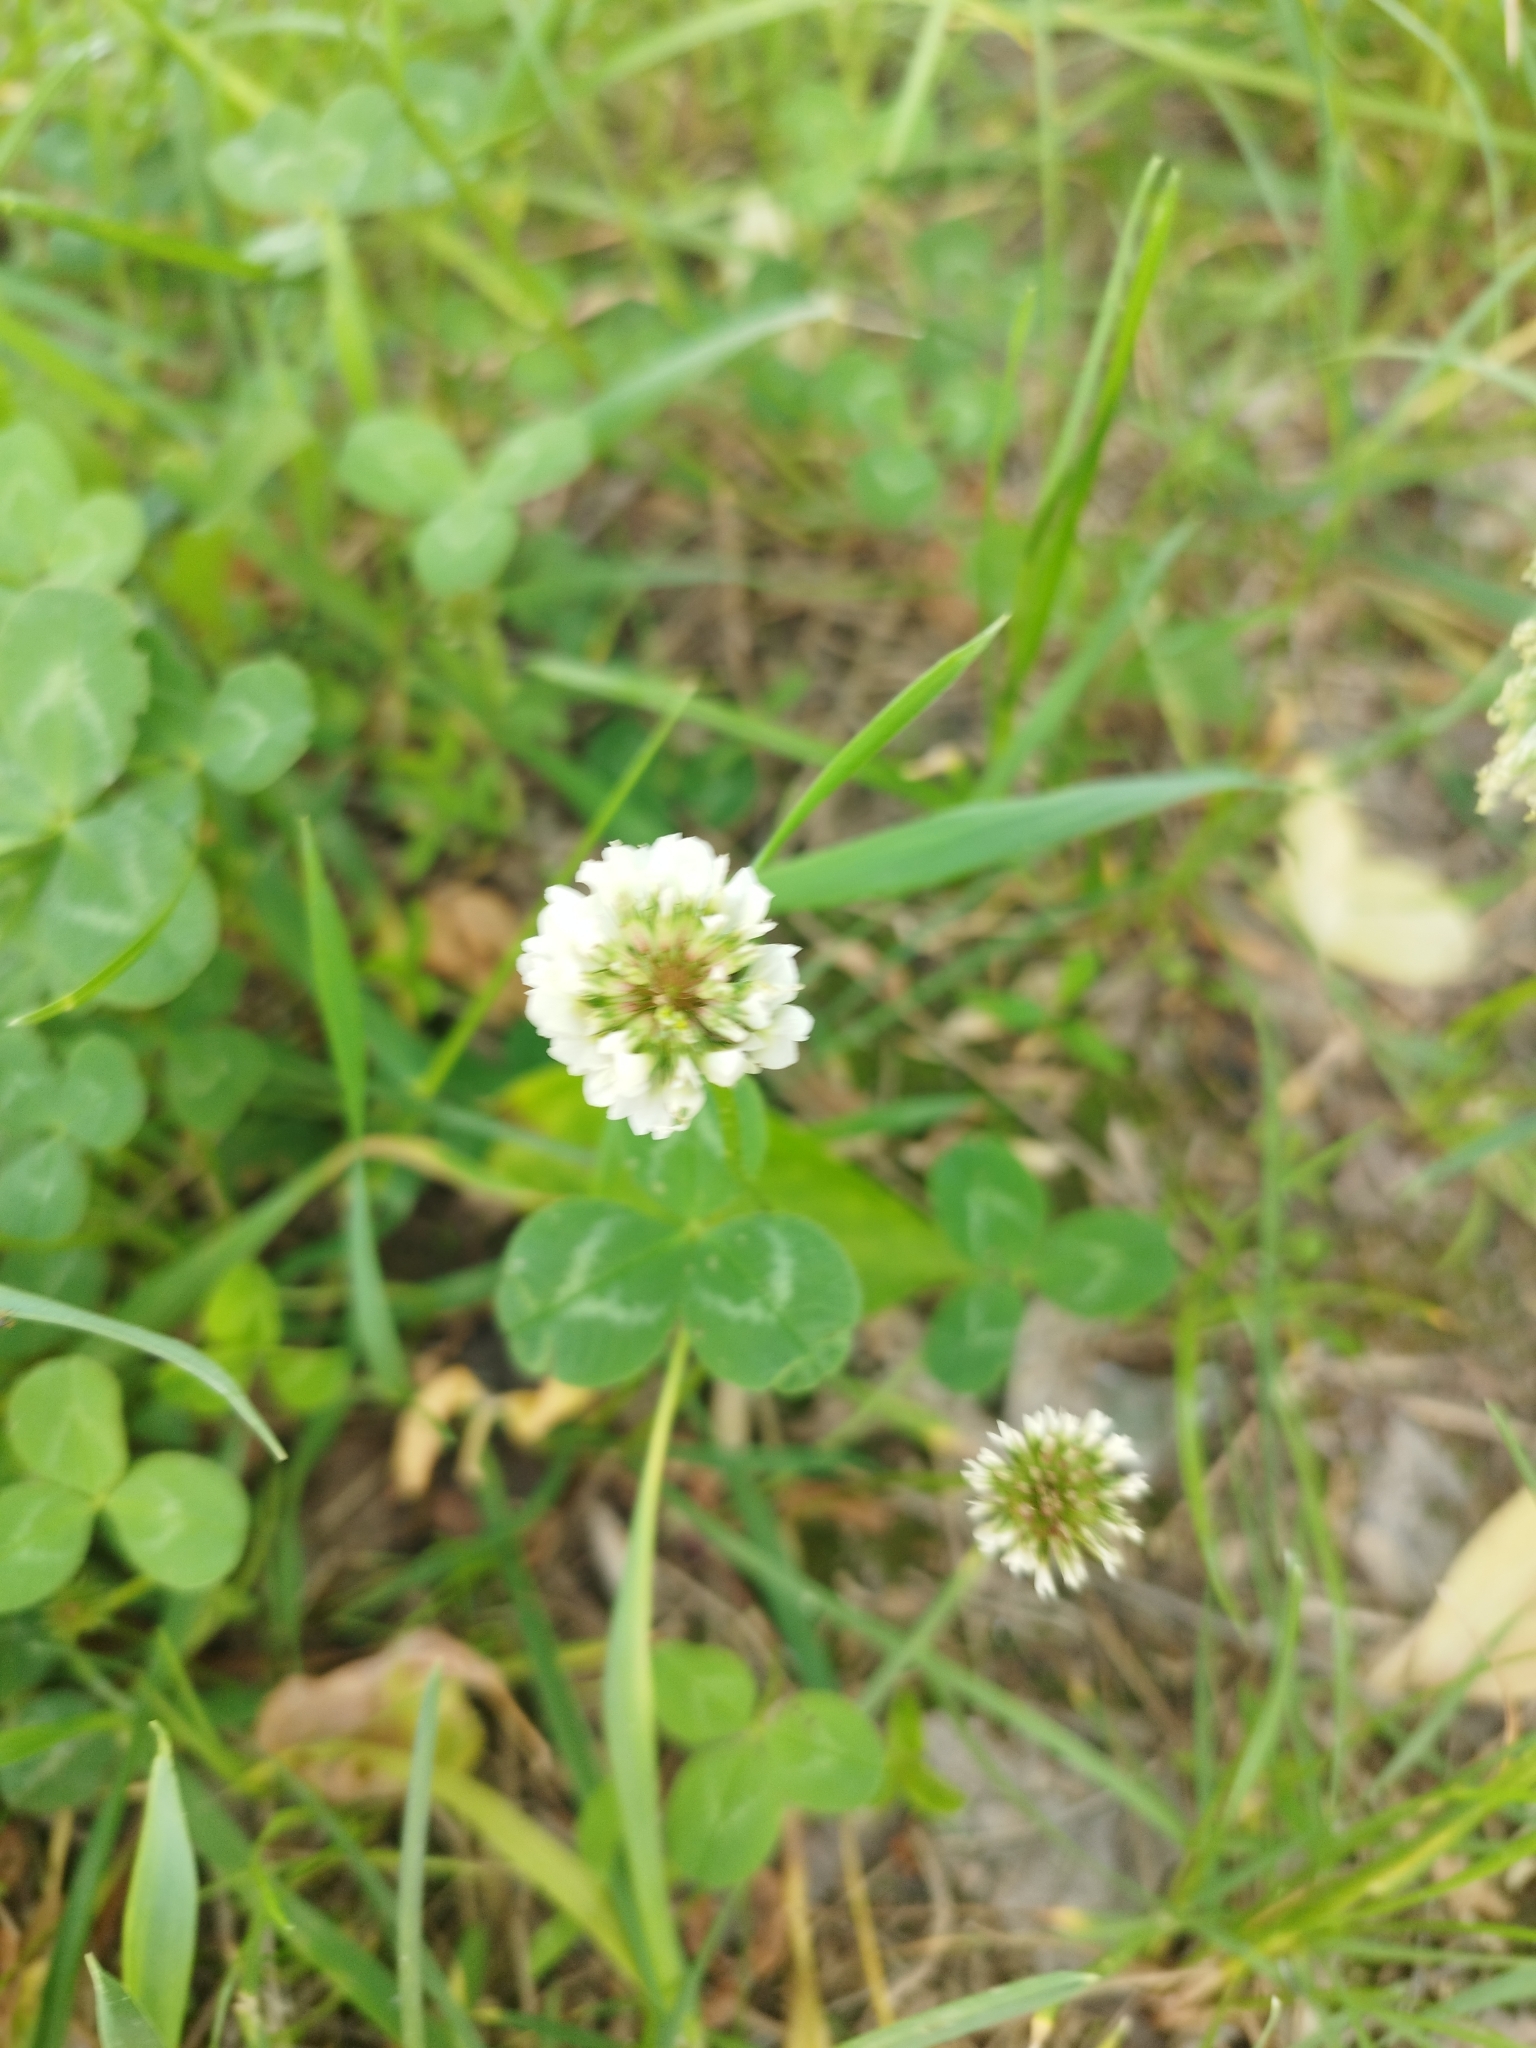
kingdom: Plantae
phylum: Tracheophyta
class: Magnoliopsida
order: Fabales
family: Fabaceae
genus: Trifolium
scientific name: Trifolium repens
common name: White clover
